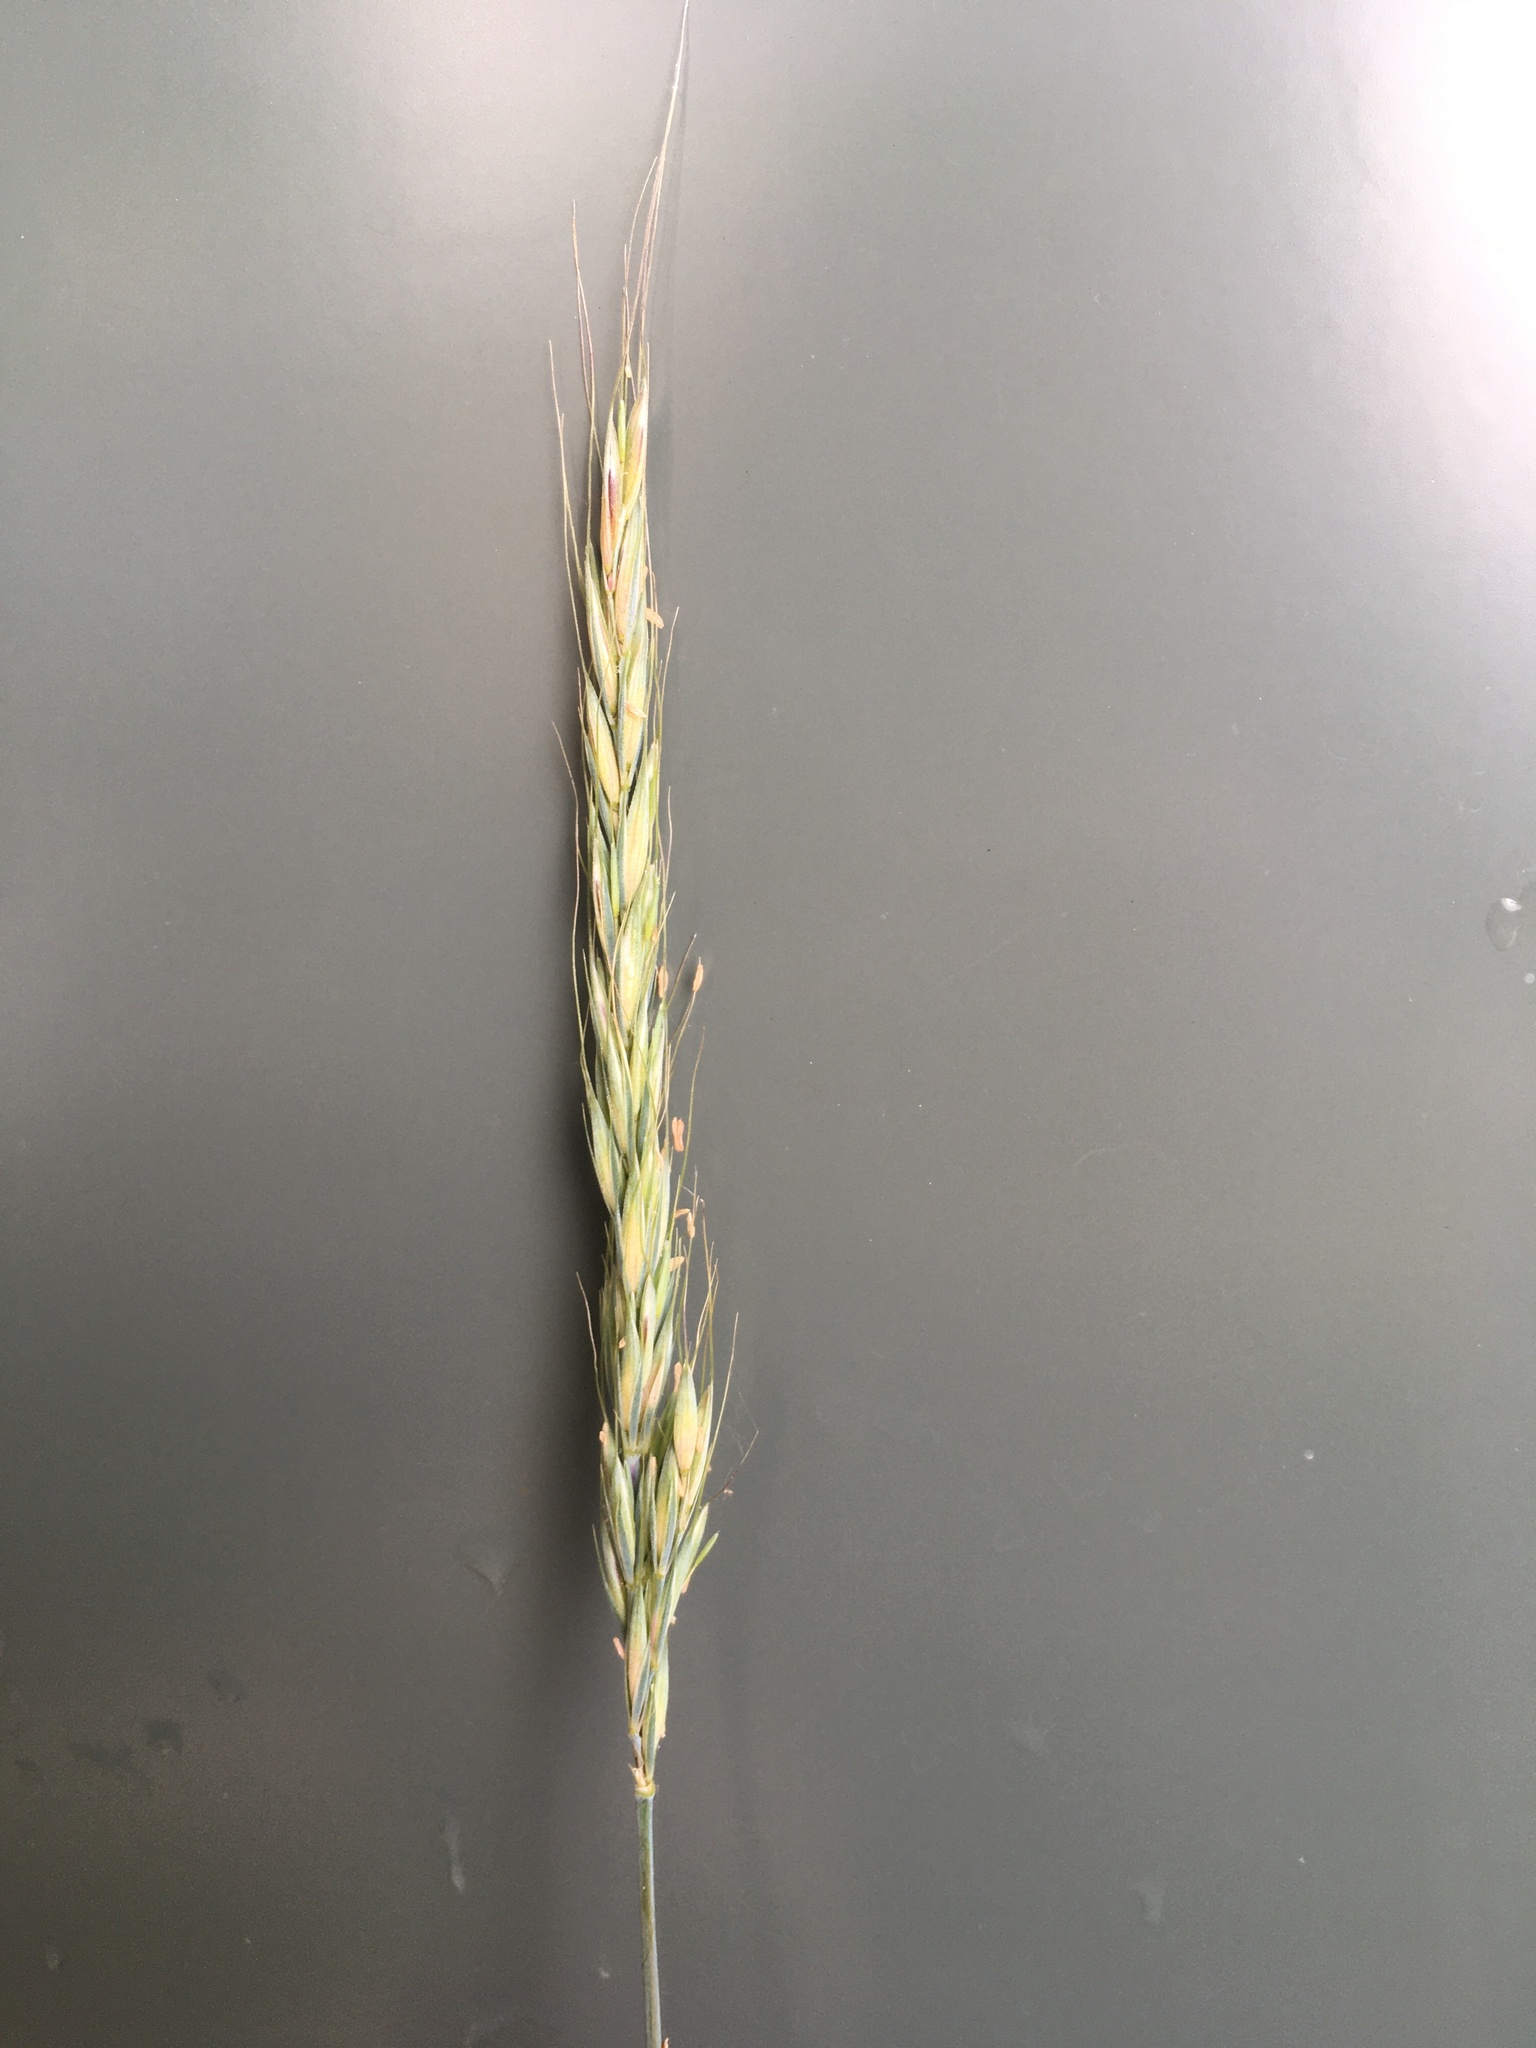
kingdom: Plantae
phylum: Tracheophyta
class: Liliopsida
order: Poales
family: Poaceae
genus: Elymus
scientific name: Elymus glaucus
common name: Blue wild rye
